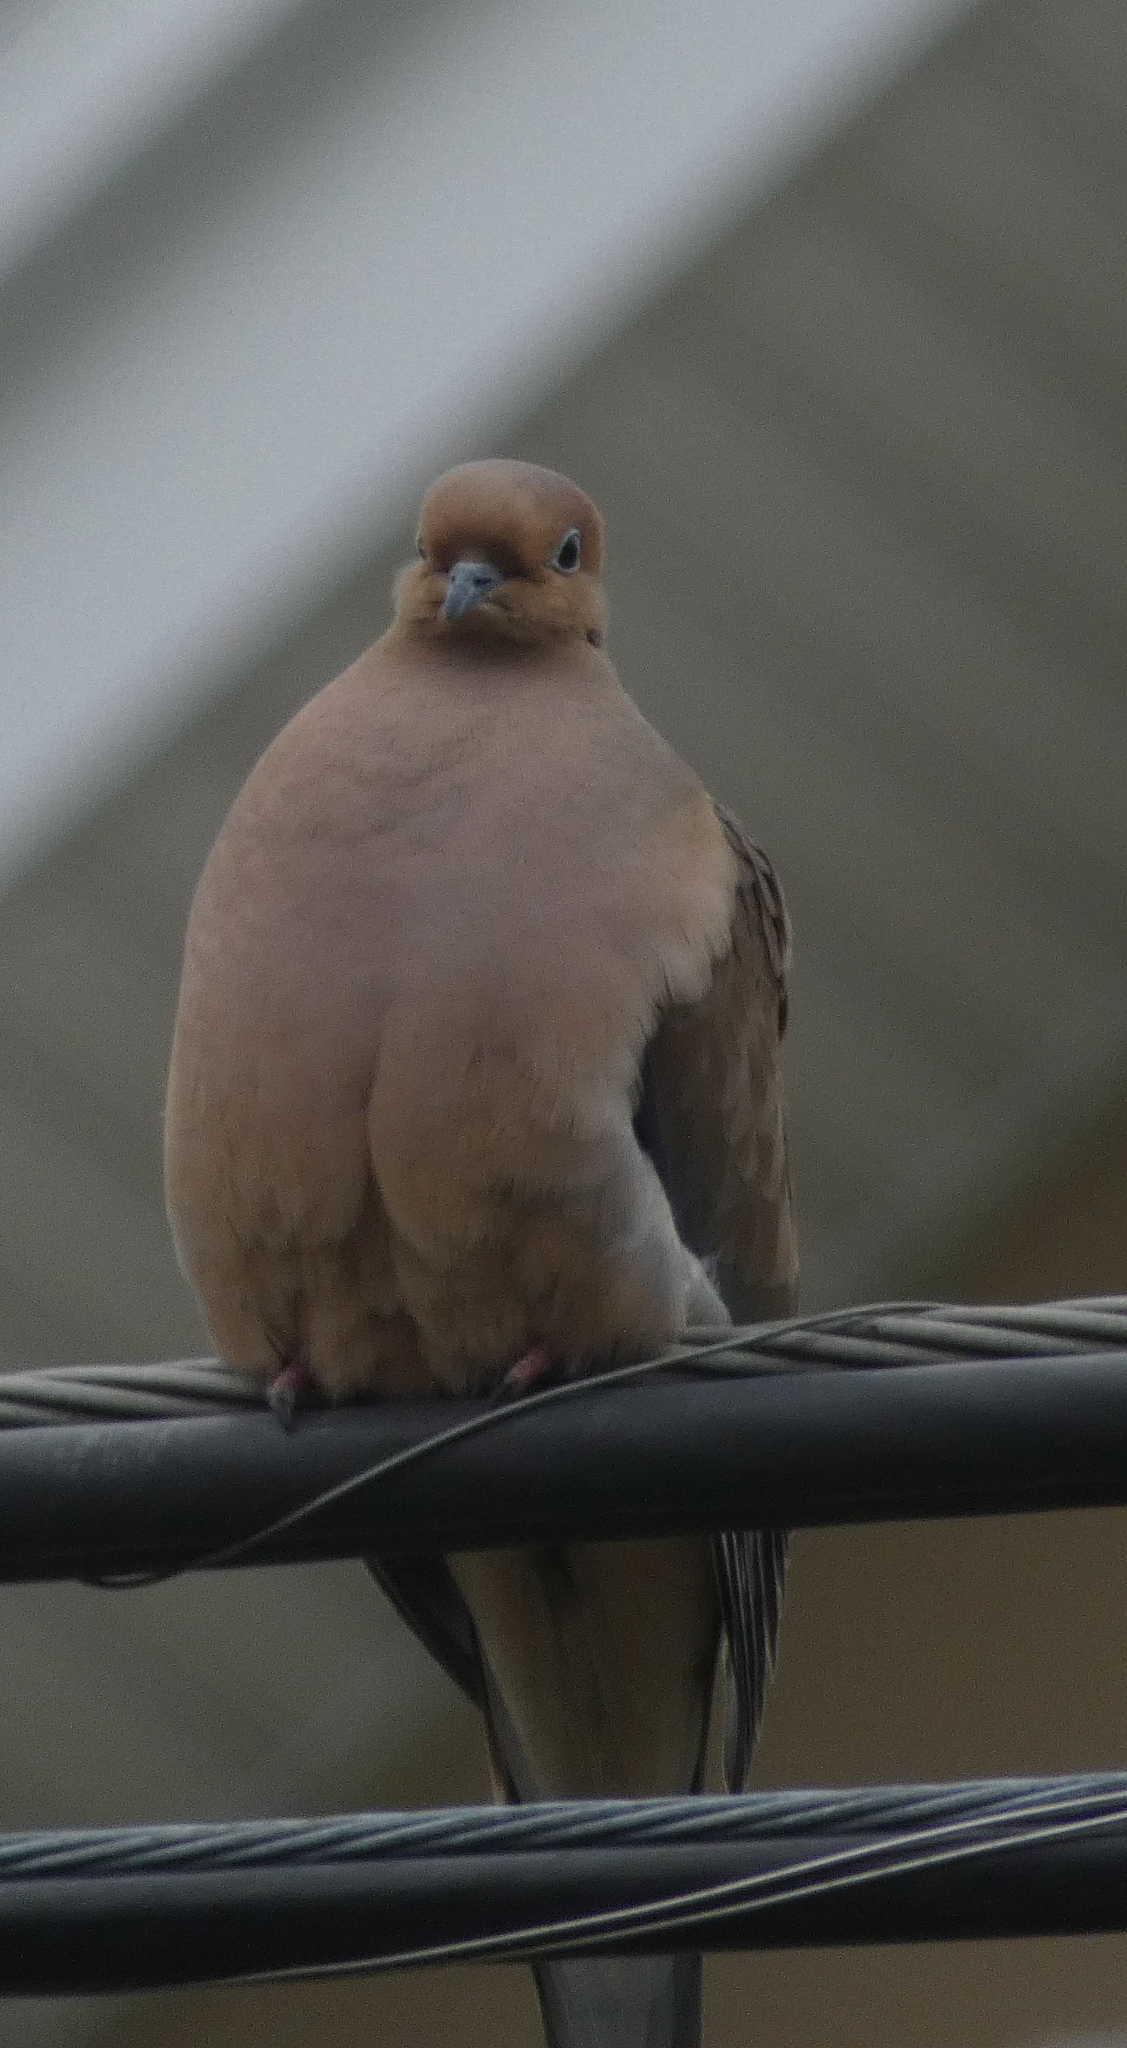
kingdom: Animalia
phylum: Chordata
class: Aves
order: Columbiformes
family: Columbidae
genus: Zenaida
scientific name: Zenaida macroura
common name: Mourning dove
